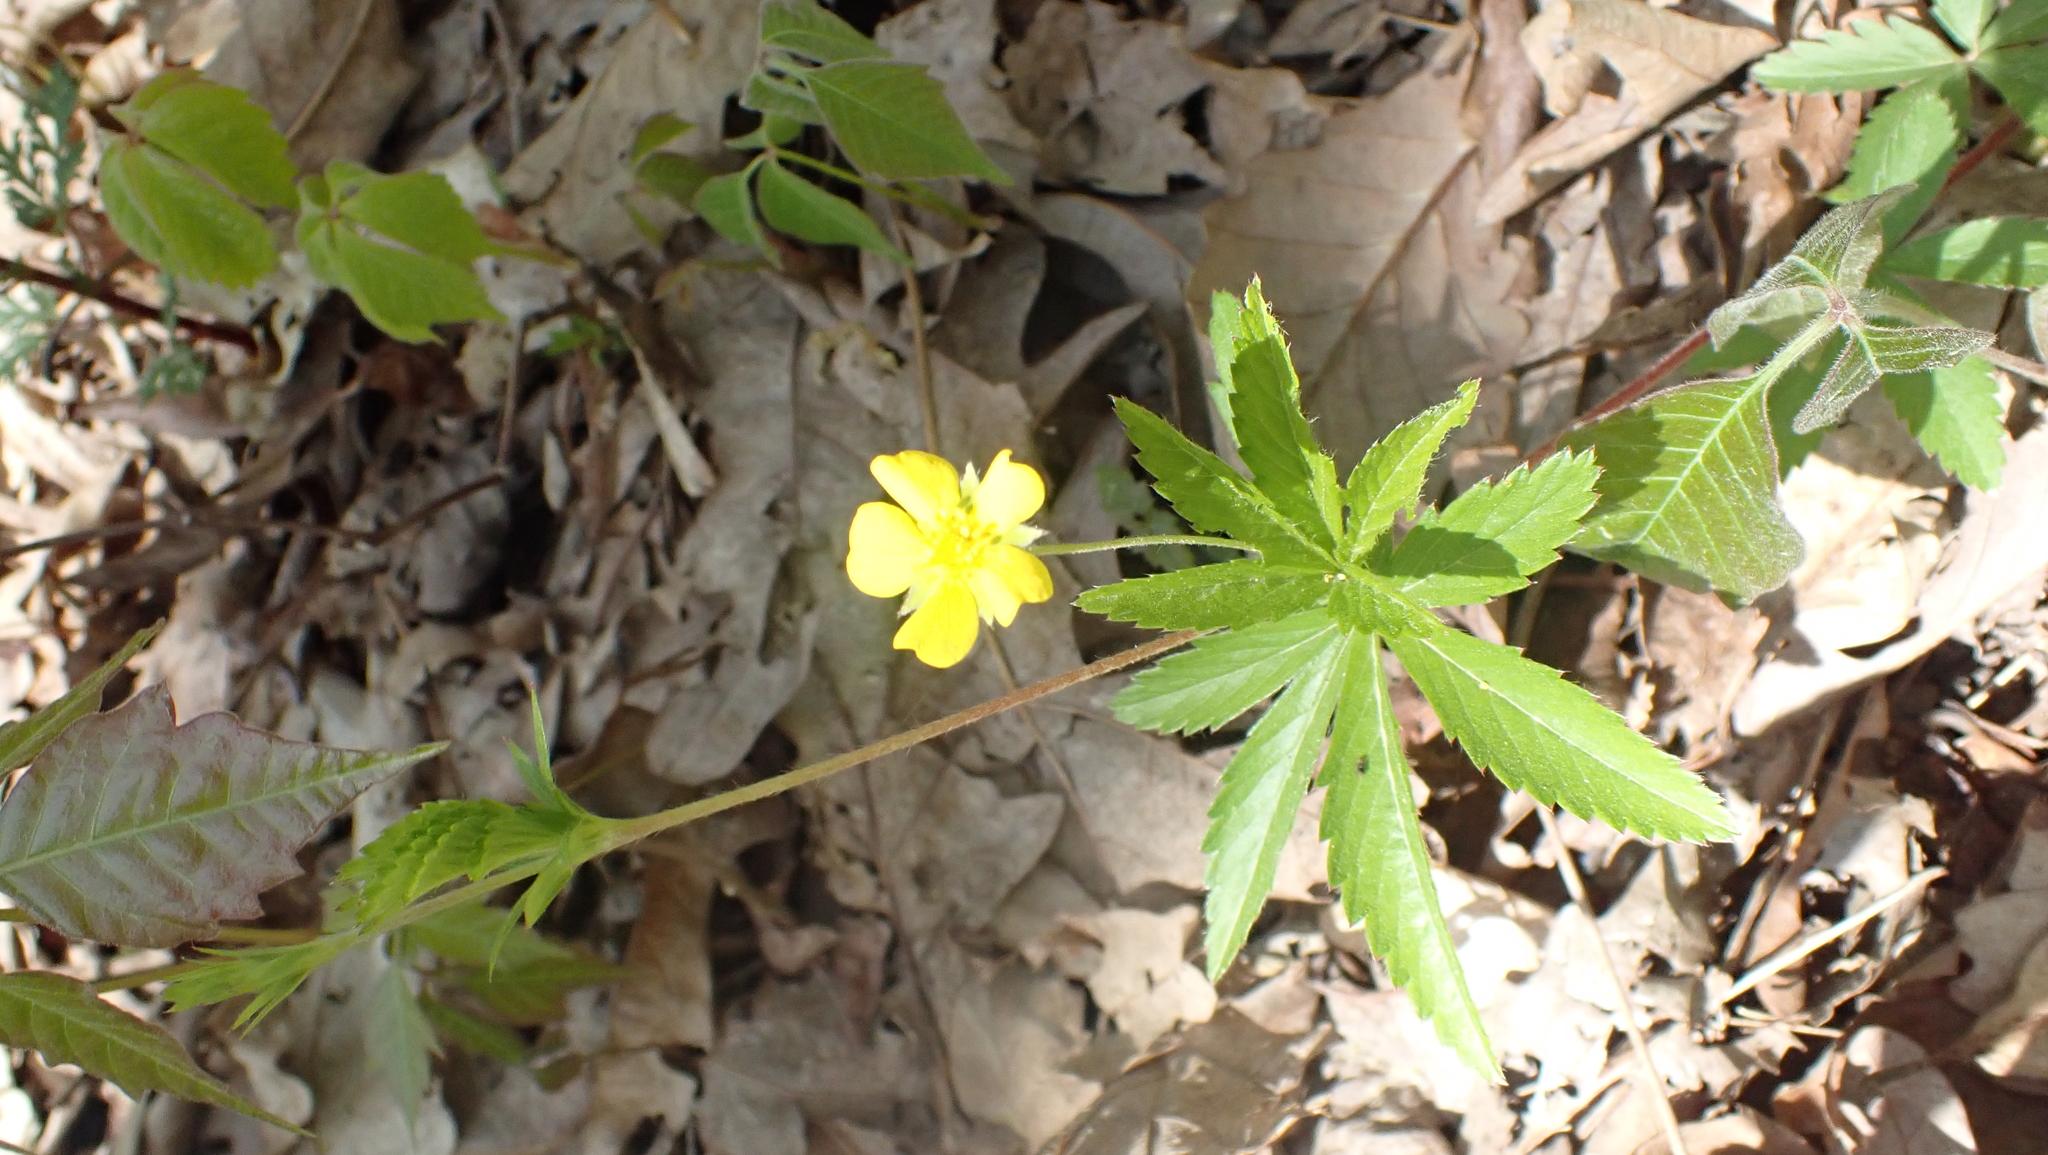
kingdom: Plantae
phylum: Tracheophyta
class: Magnoliopsida
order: Rosales
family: Rosaceae
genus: Potentilla
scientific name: Potentilla simplex
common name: Old field cinquefoil
